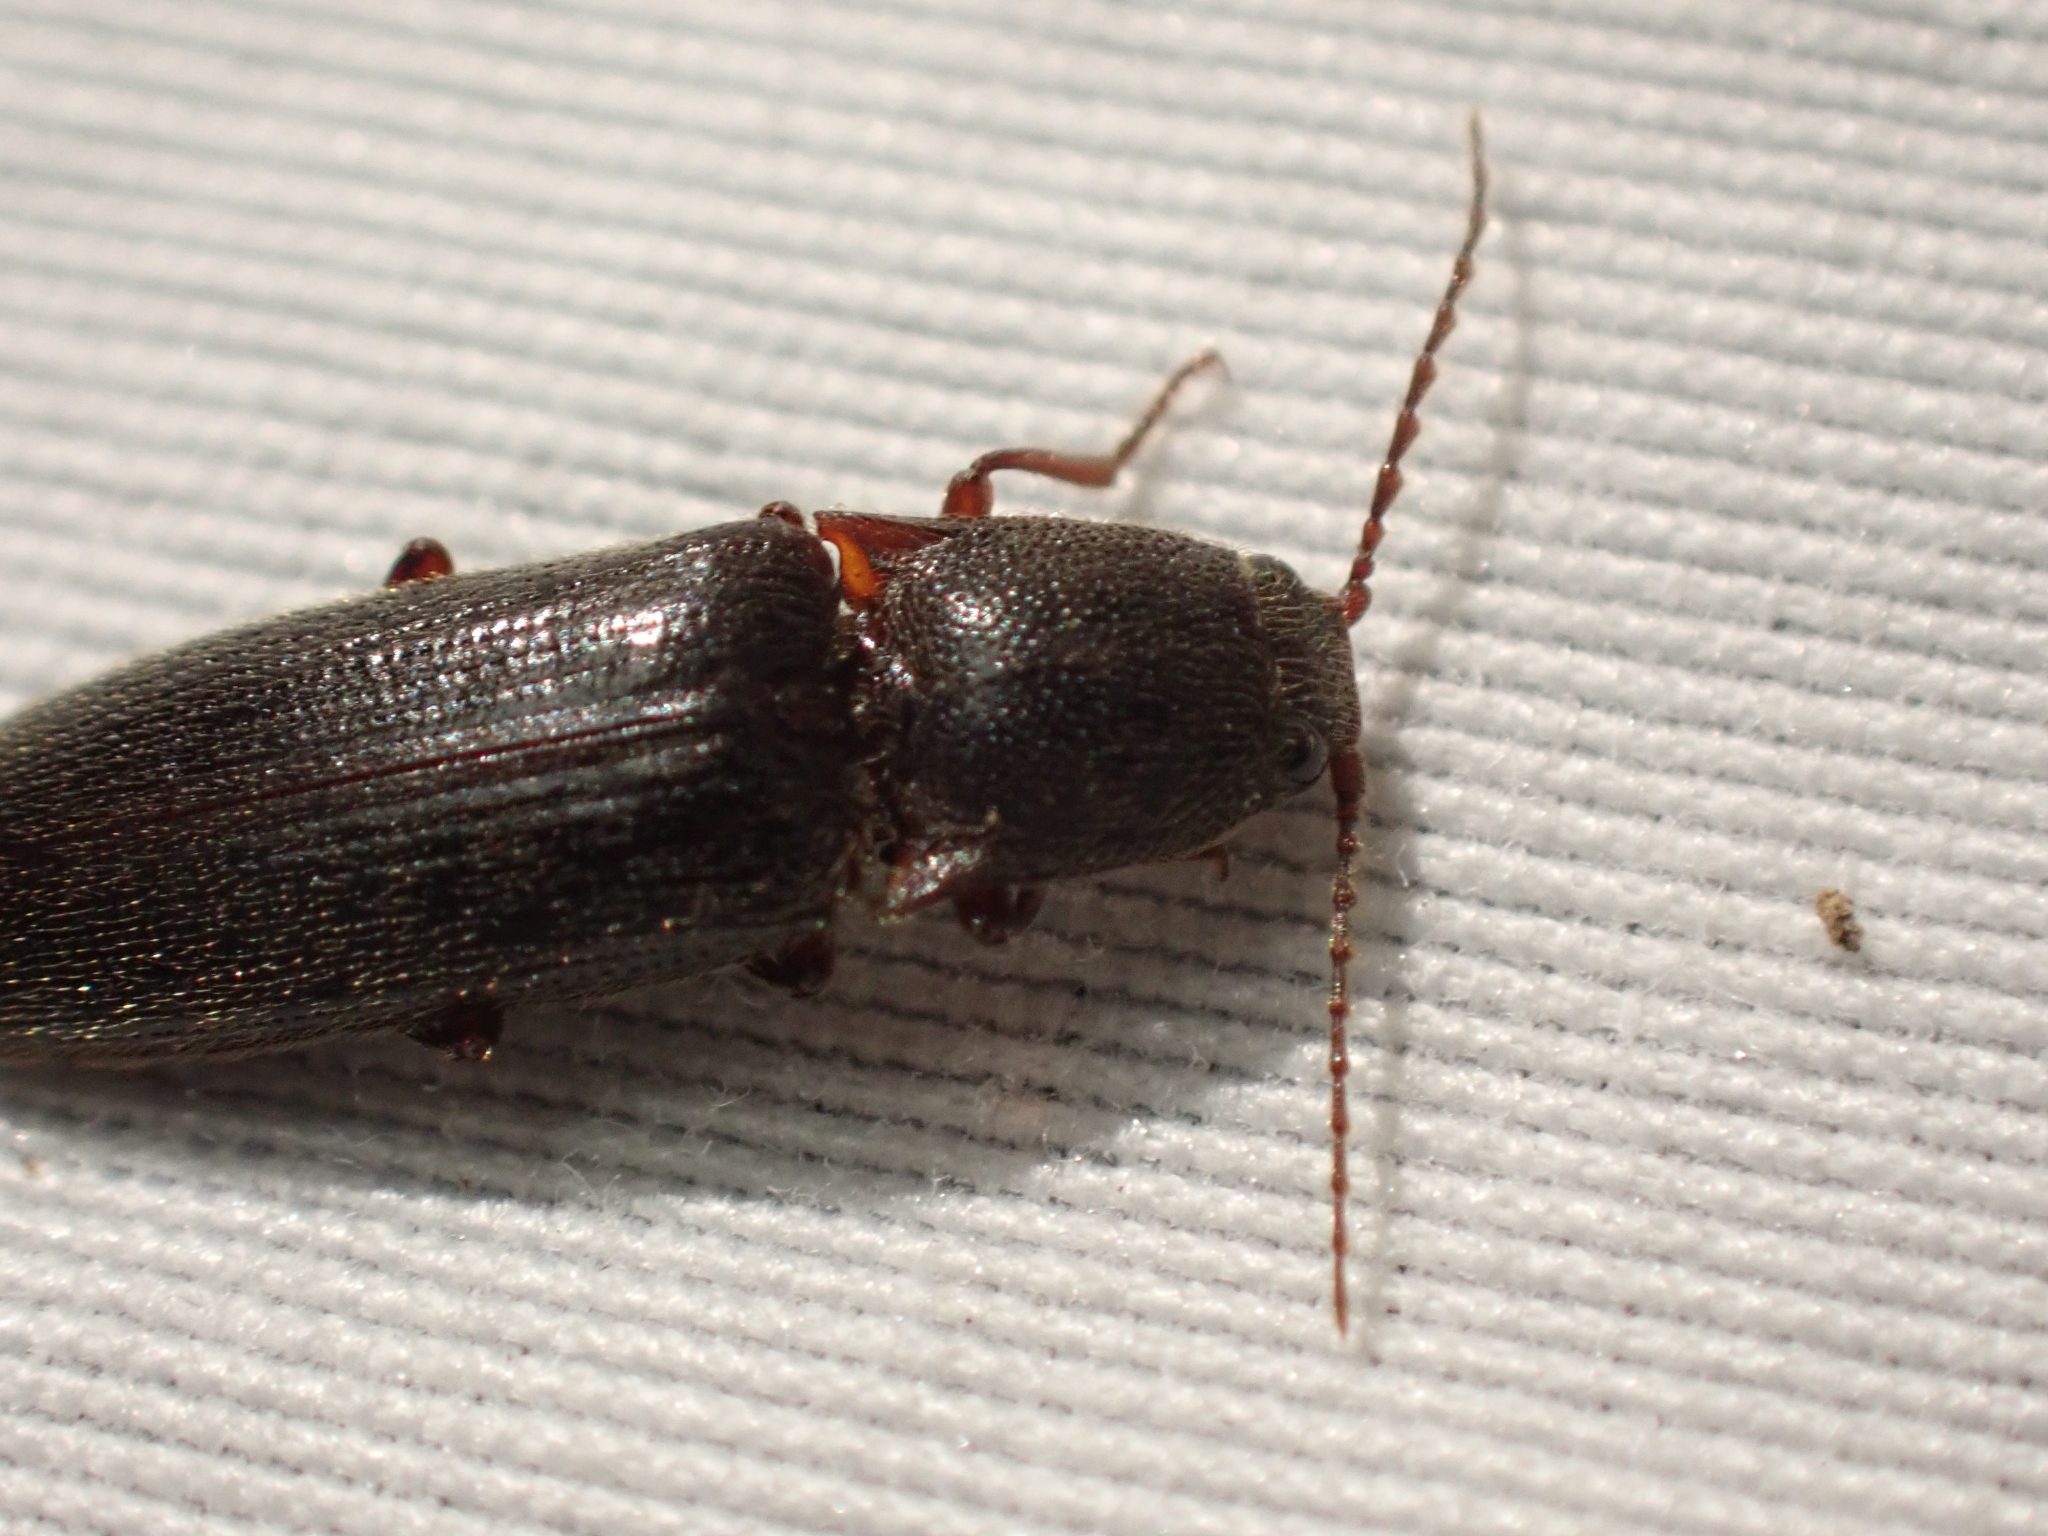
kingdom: Animalia
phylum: Arthropoda
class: Insecta
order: Coleoptera
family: Elateridae
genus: Melanotus
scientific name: Melanotus longulus
